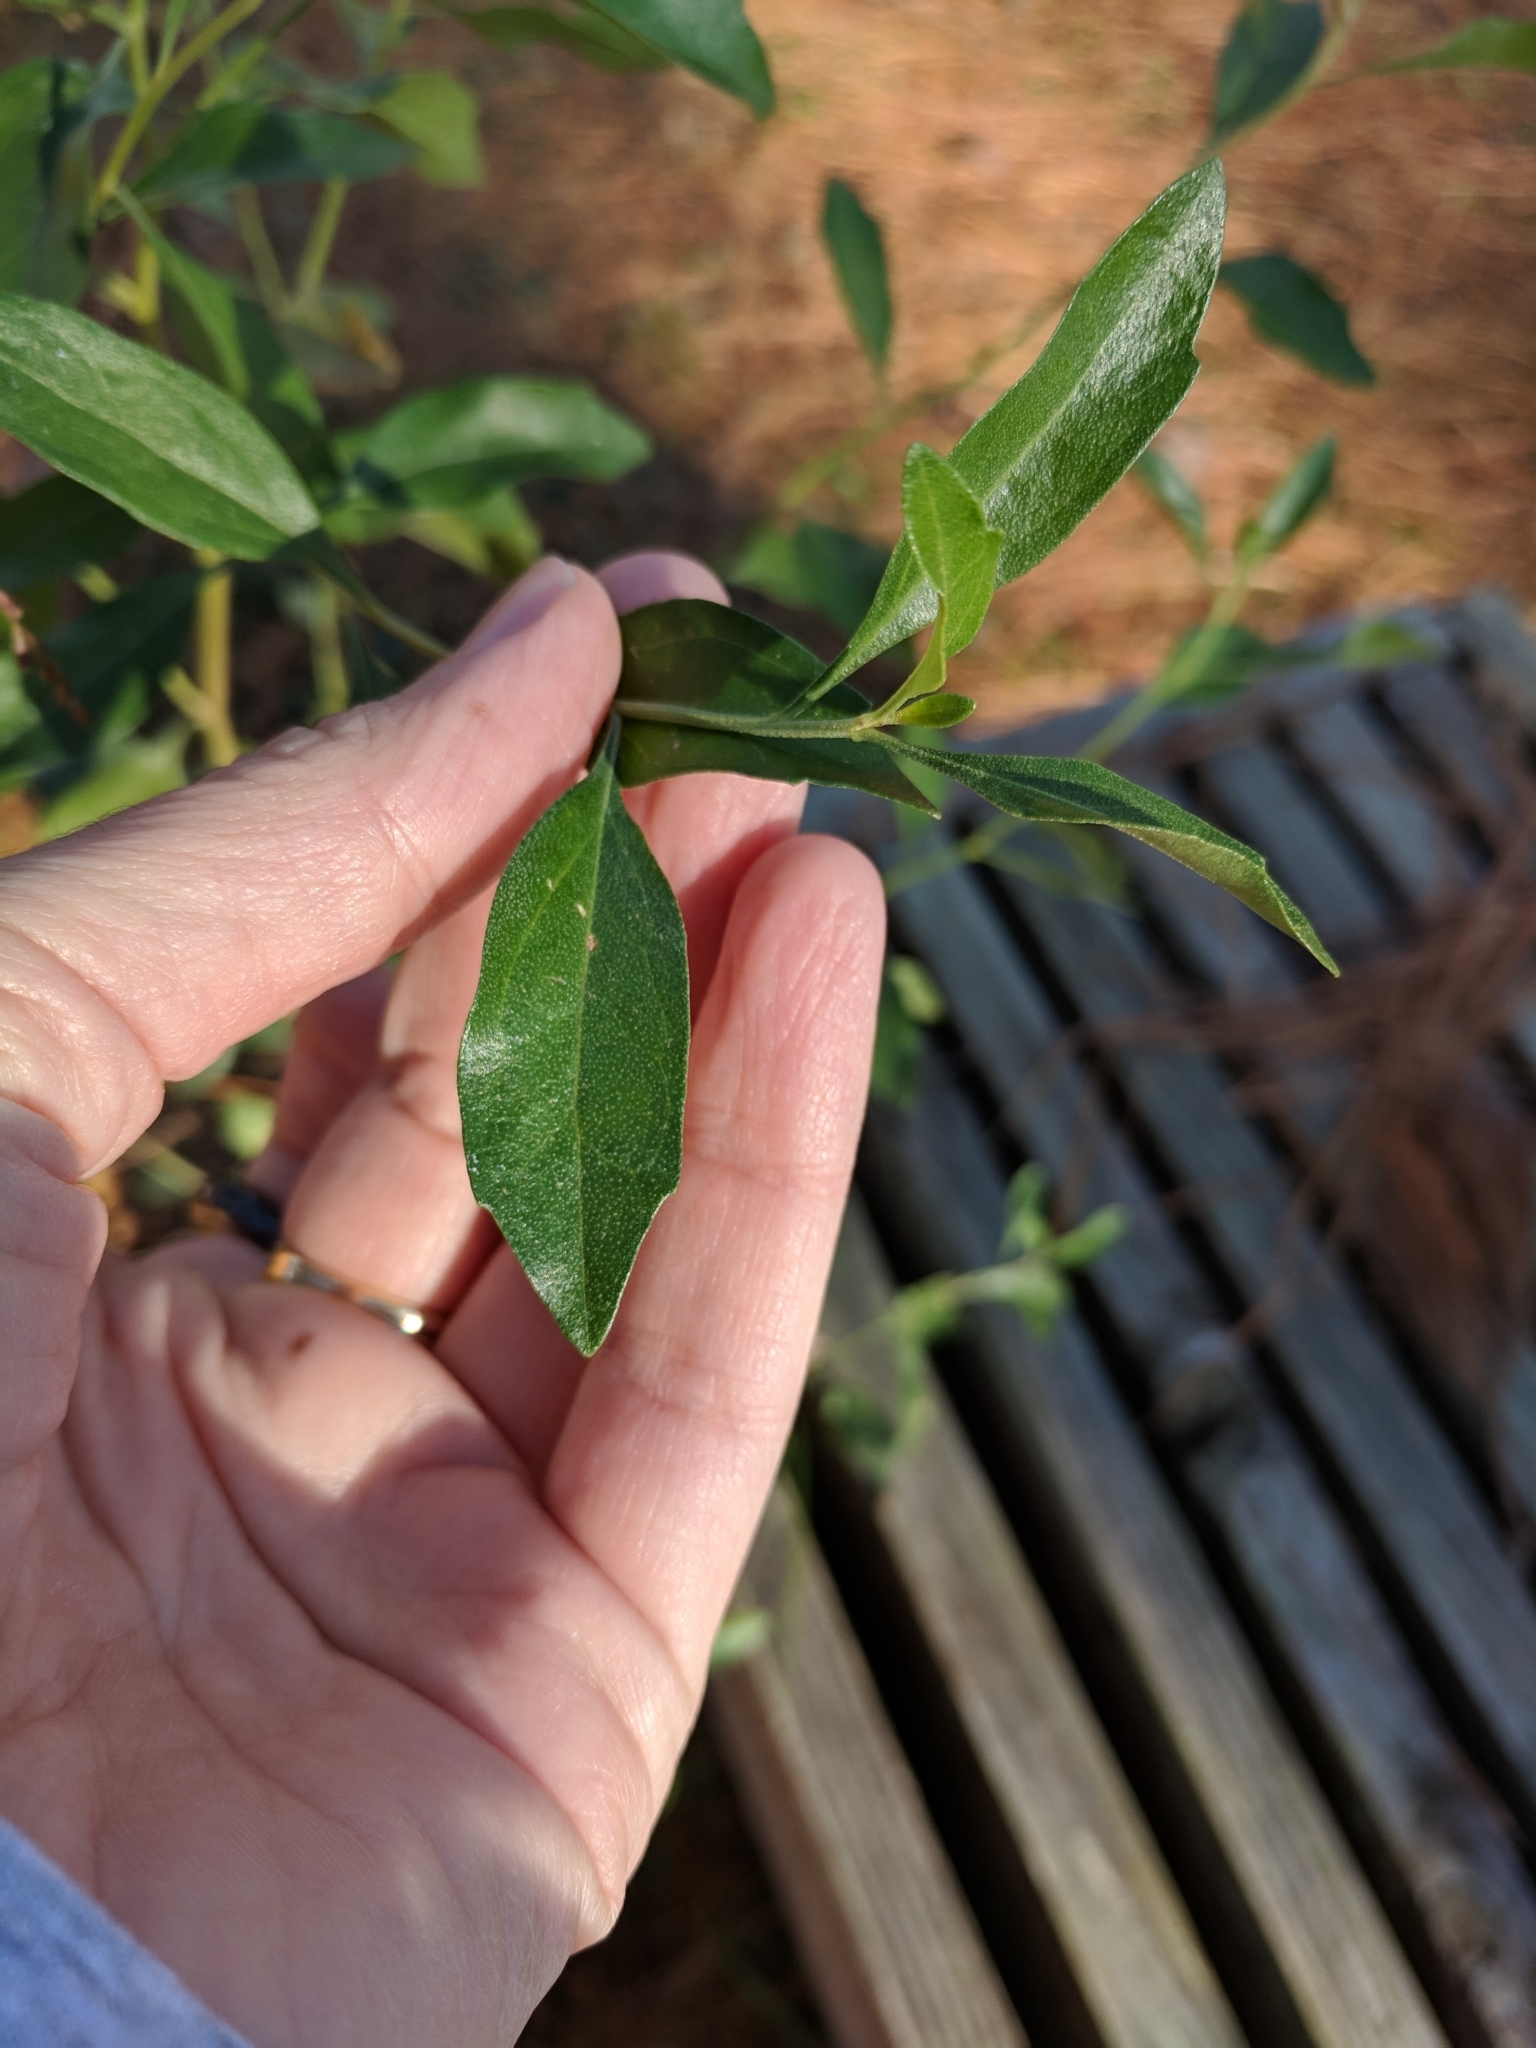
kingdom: Plantae
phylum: Tracheophyta
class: Magnoliopsida
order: Asterales
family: Asteraceae
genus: Baccharis
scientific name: Baccharis halimifolia
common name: Eastern baccharis
